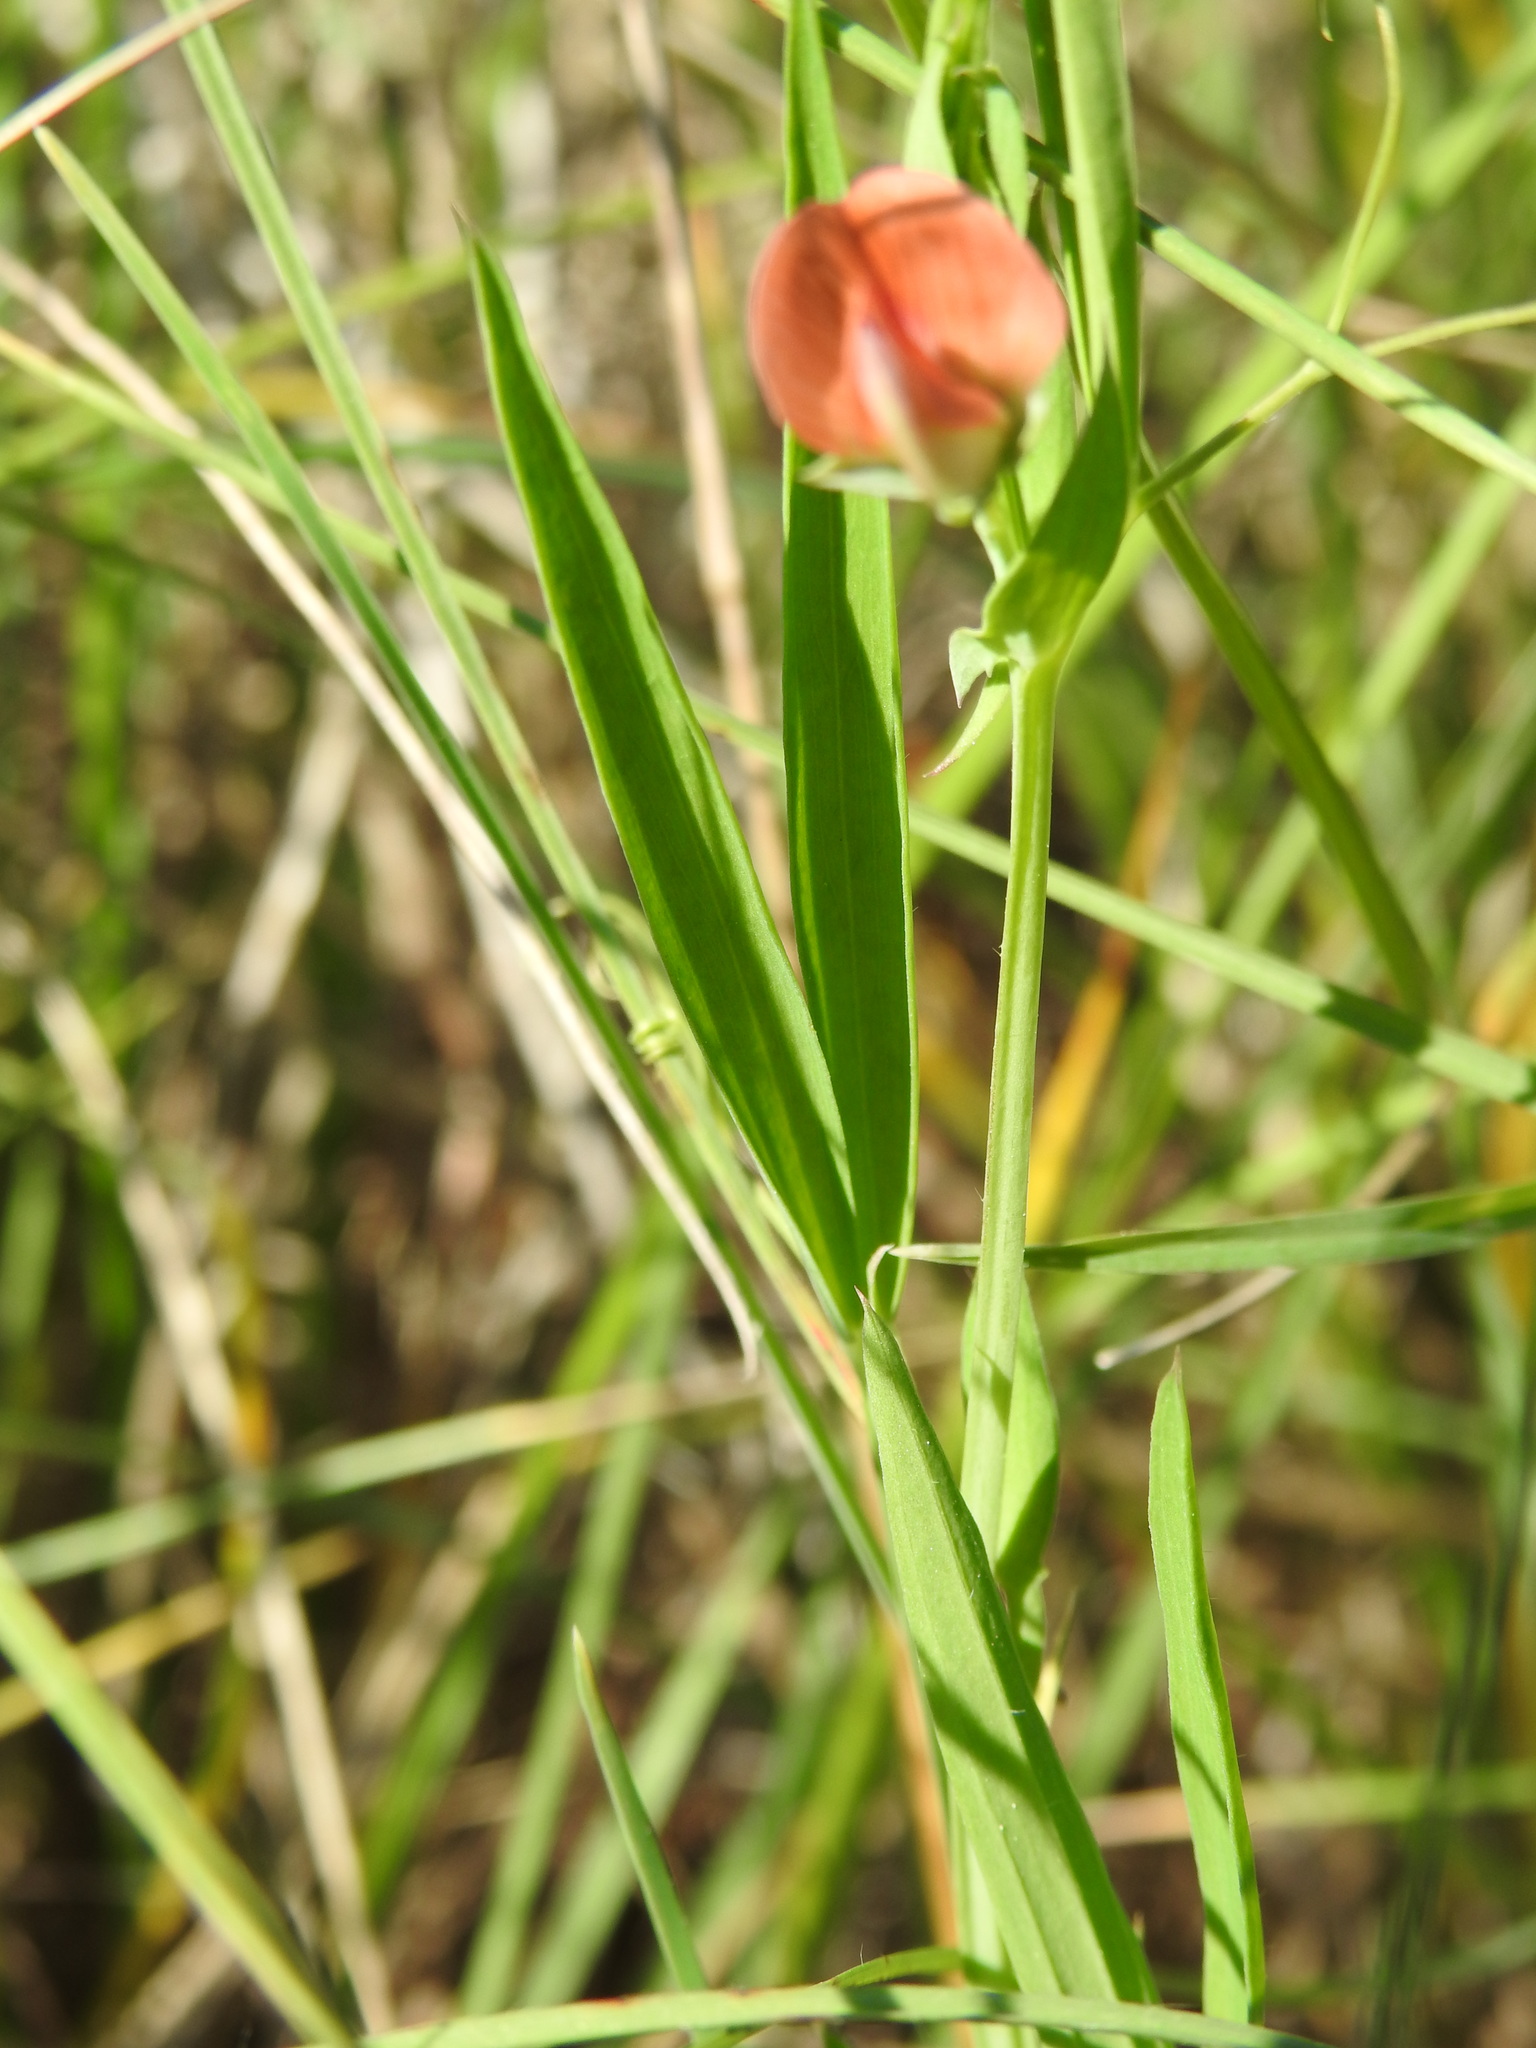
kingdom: Plantae
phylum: Tracheophyta
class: Magnoliopsida
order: Fabales
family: Fabaceae
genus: Lathyrus
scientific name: Lathyrus cicera
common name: Red vetchling
